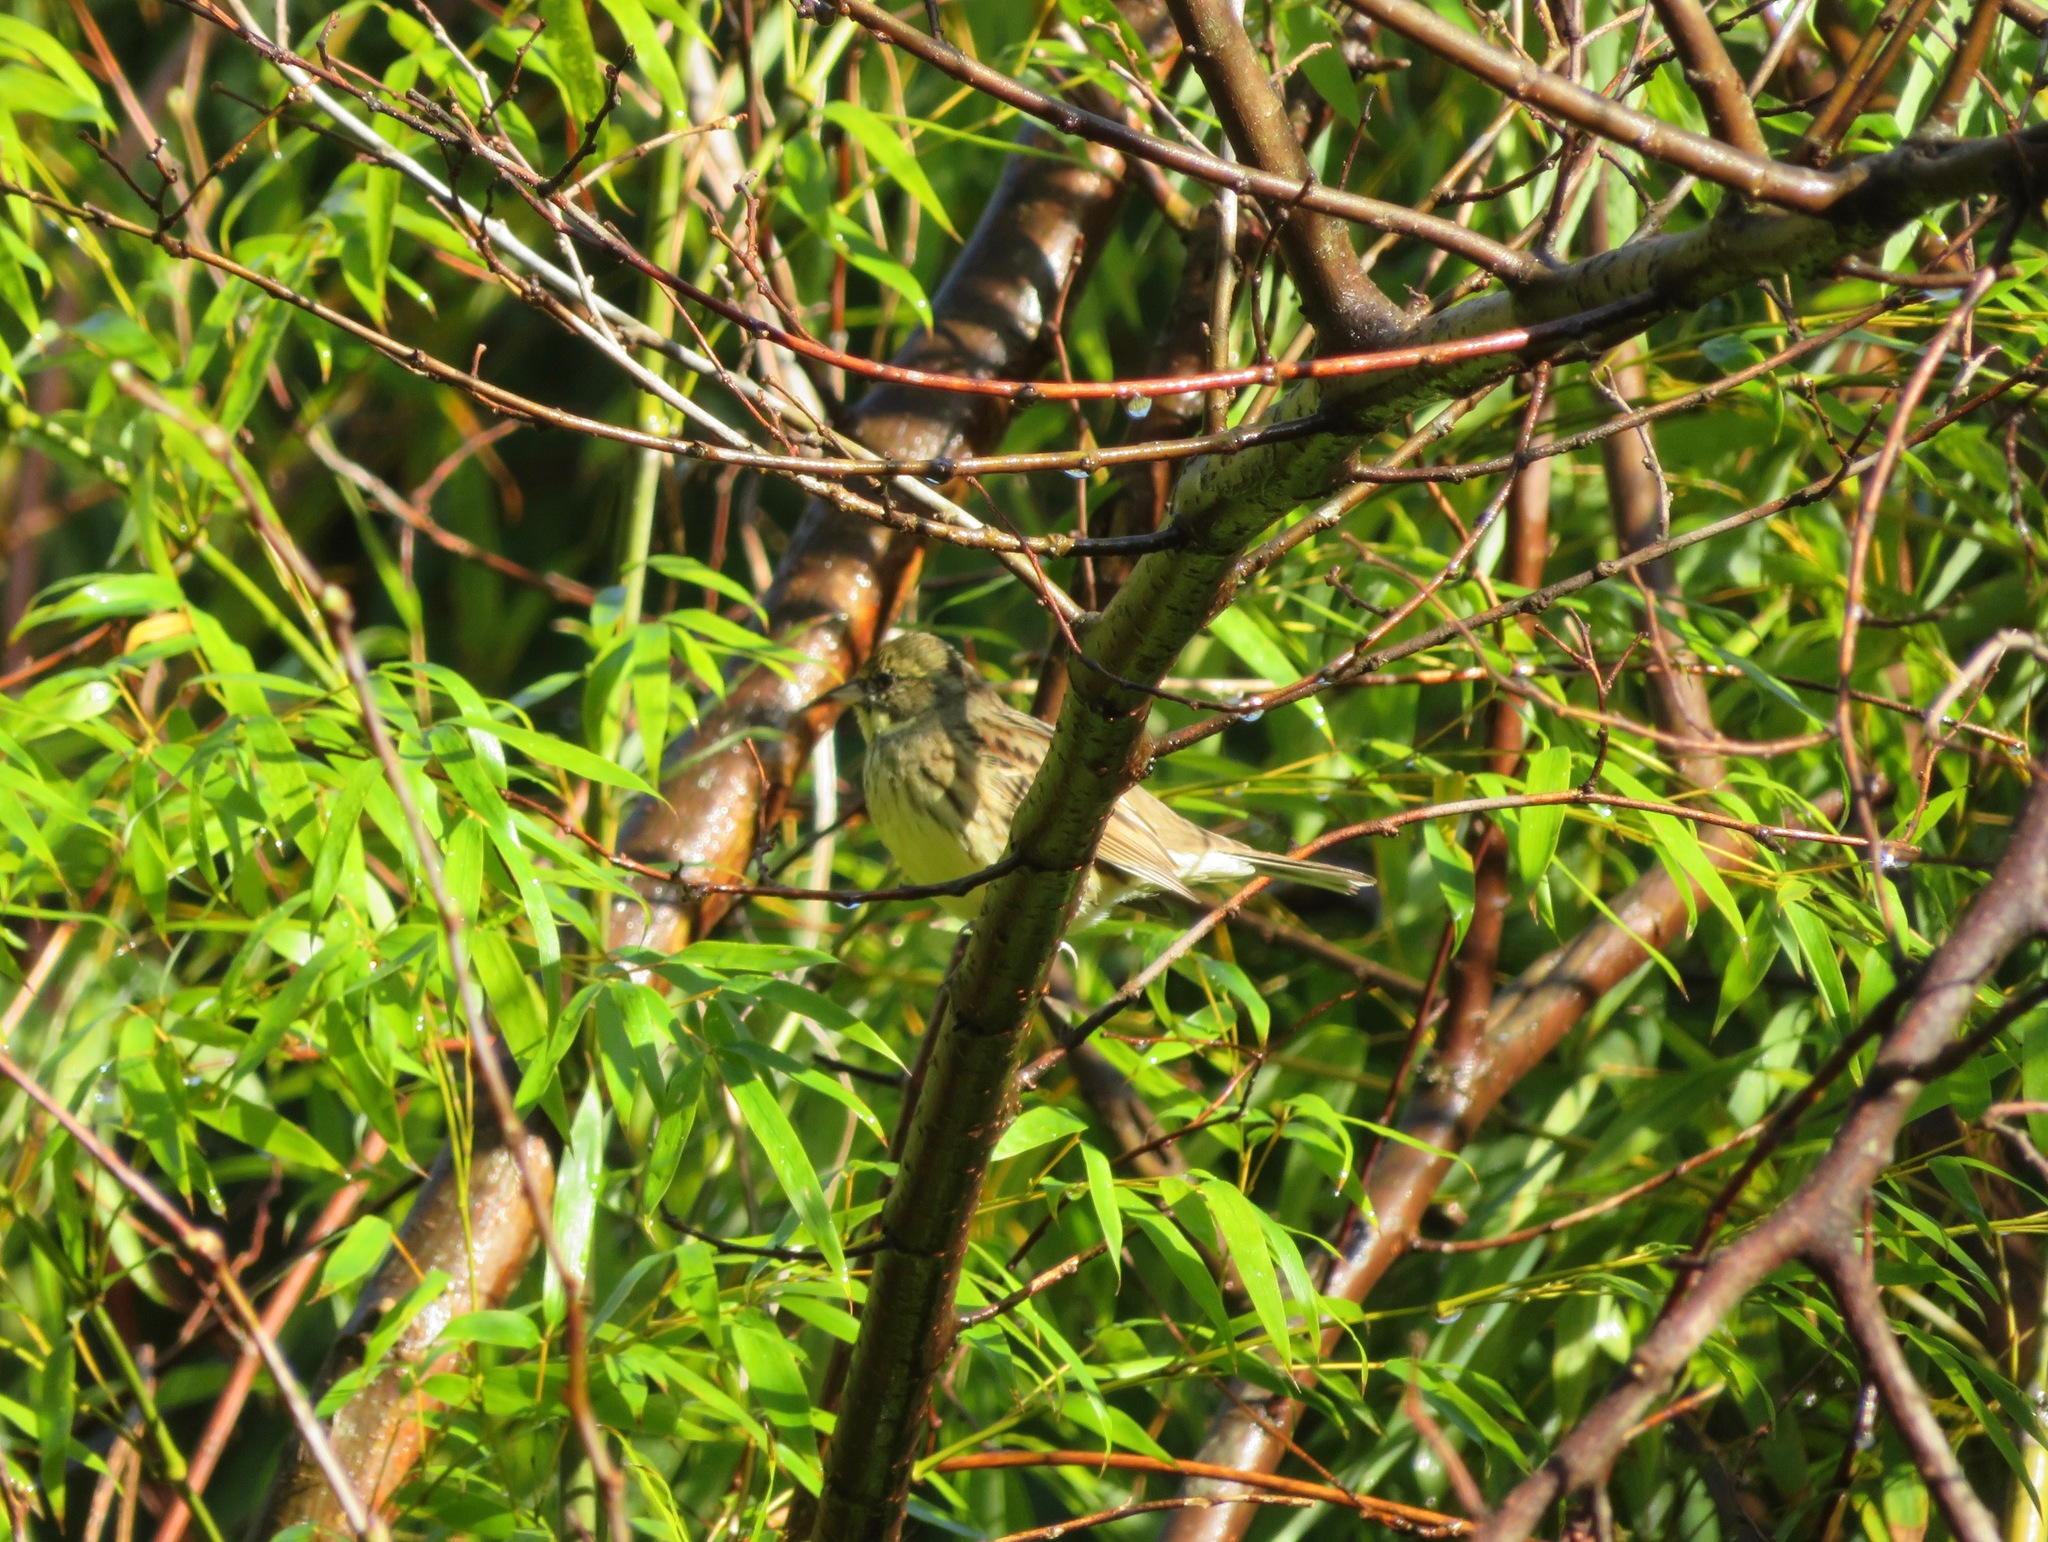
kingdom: Animalia
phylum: Chordata
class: Aves
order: Passeriformes
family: Emberizidae
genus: Emberiza
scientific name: Emberiza personata
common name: Masked bunting
